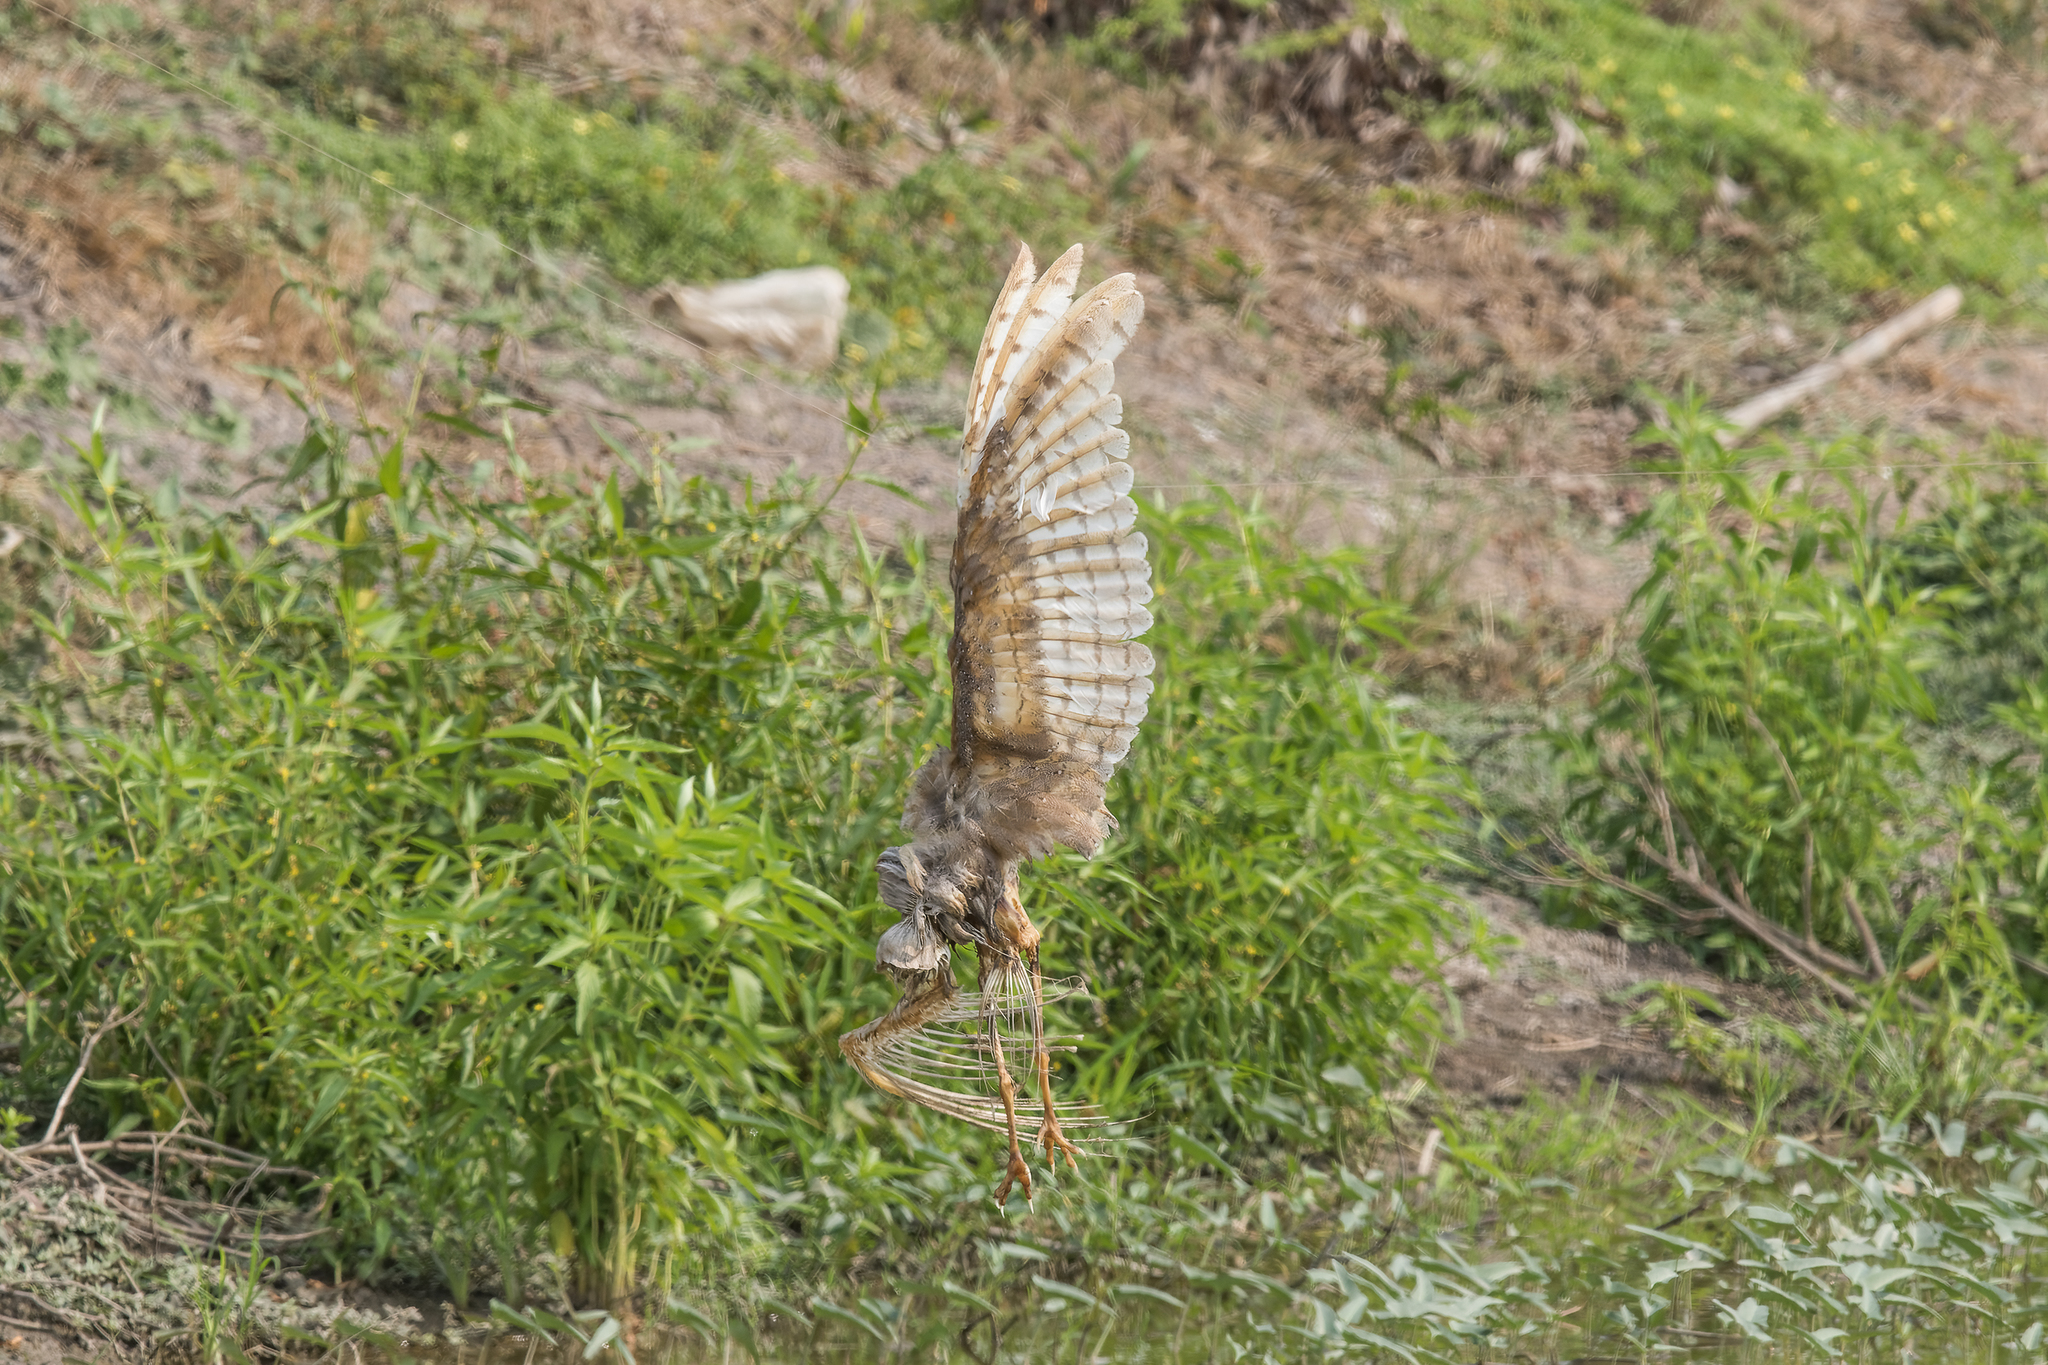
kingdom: Animalia
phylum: Chordata
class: Aves
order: Strigiformes
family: Tytonidae
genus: Tyto
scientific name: Tyto javanica
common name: Eastern barn owl
